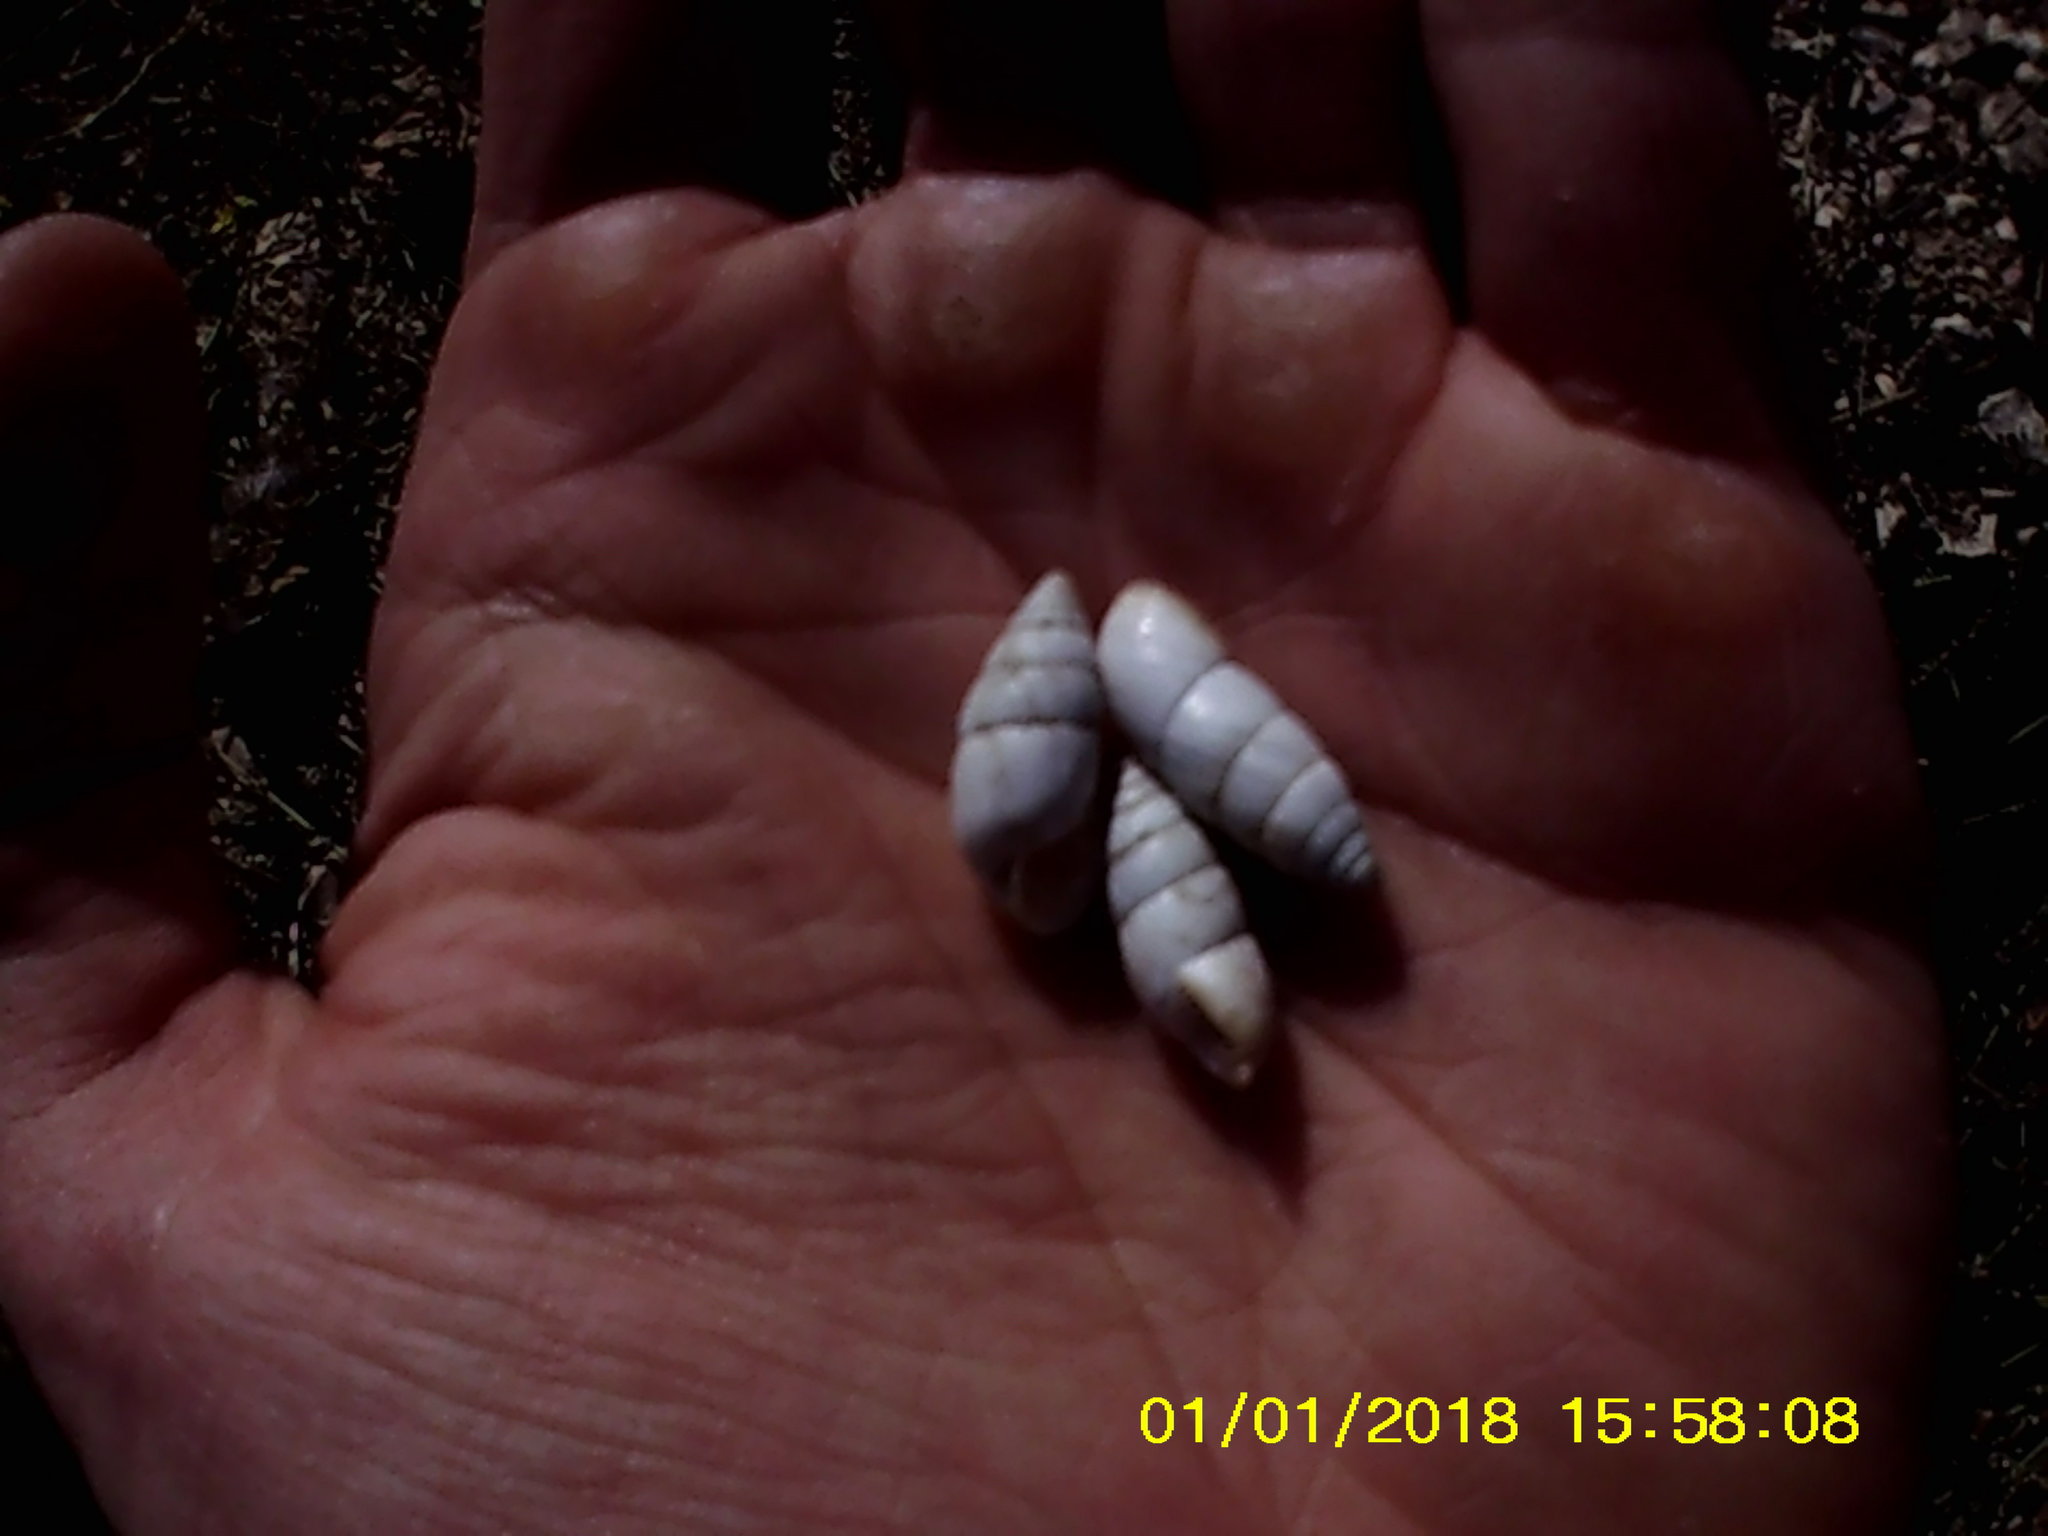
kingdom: Animalia
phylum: Mollusca
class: Gastropoda
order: Stylommatophora
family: Enidae
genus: Brephulopsis
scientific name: Brephulopsis cylindrica
